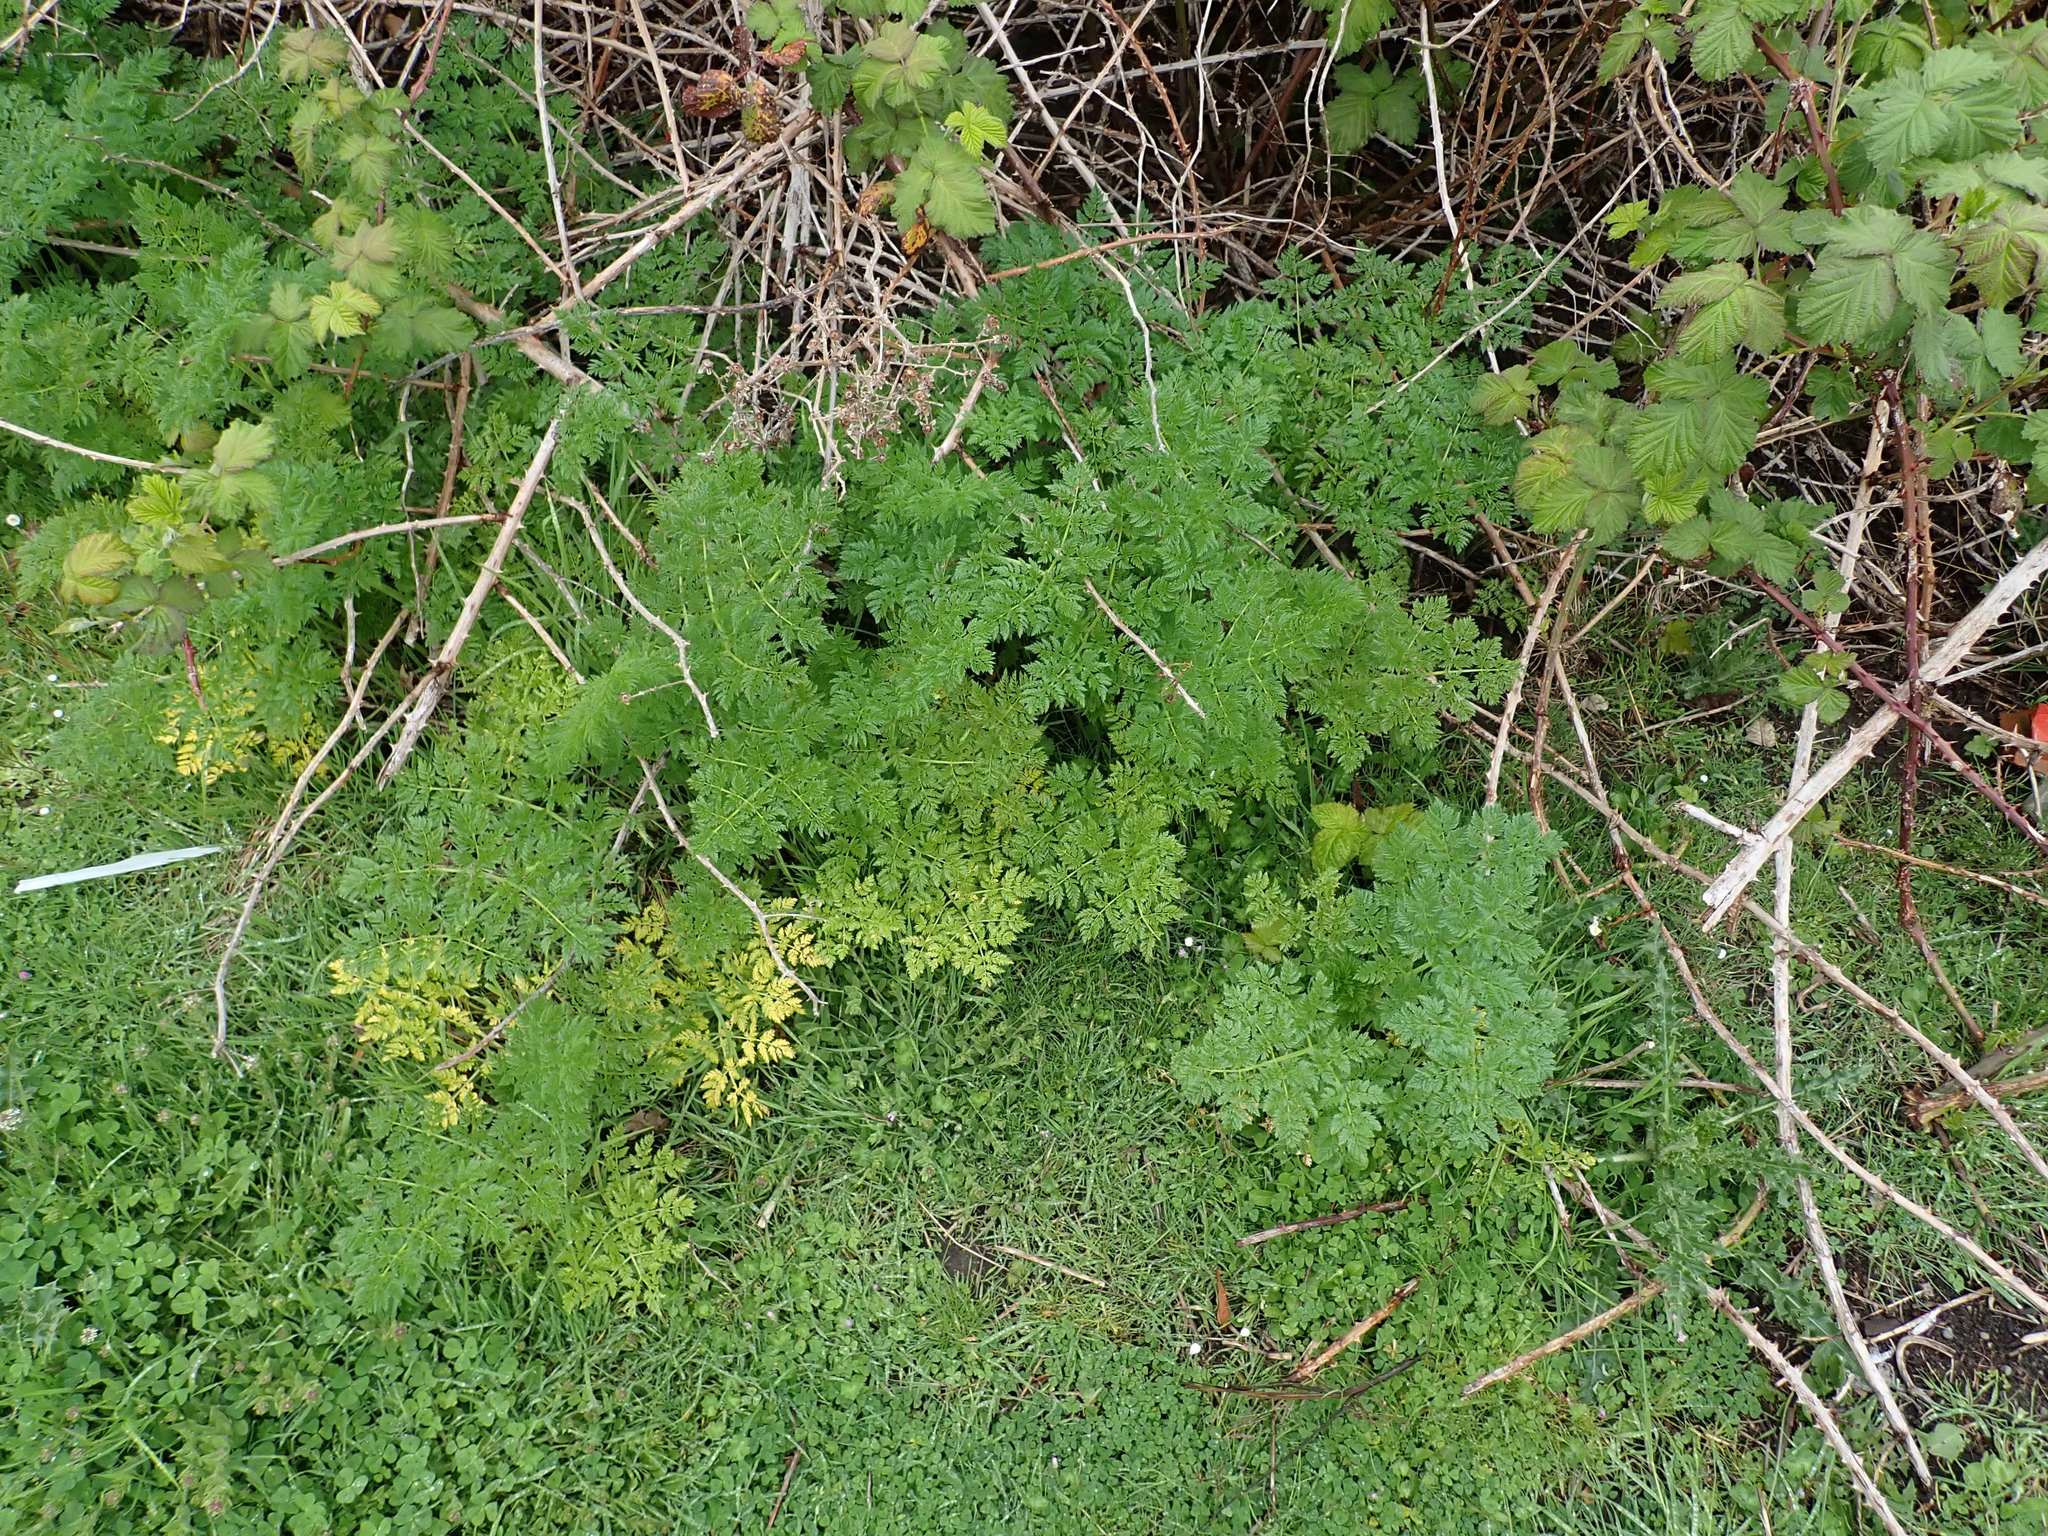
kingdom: Plantae
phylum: Tracheophyta
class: Magnoliopsida
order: Apiales
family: Apiaceae
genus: Conium
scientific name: Conium maculatum
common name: Hemlock
